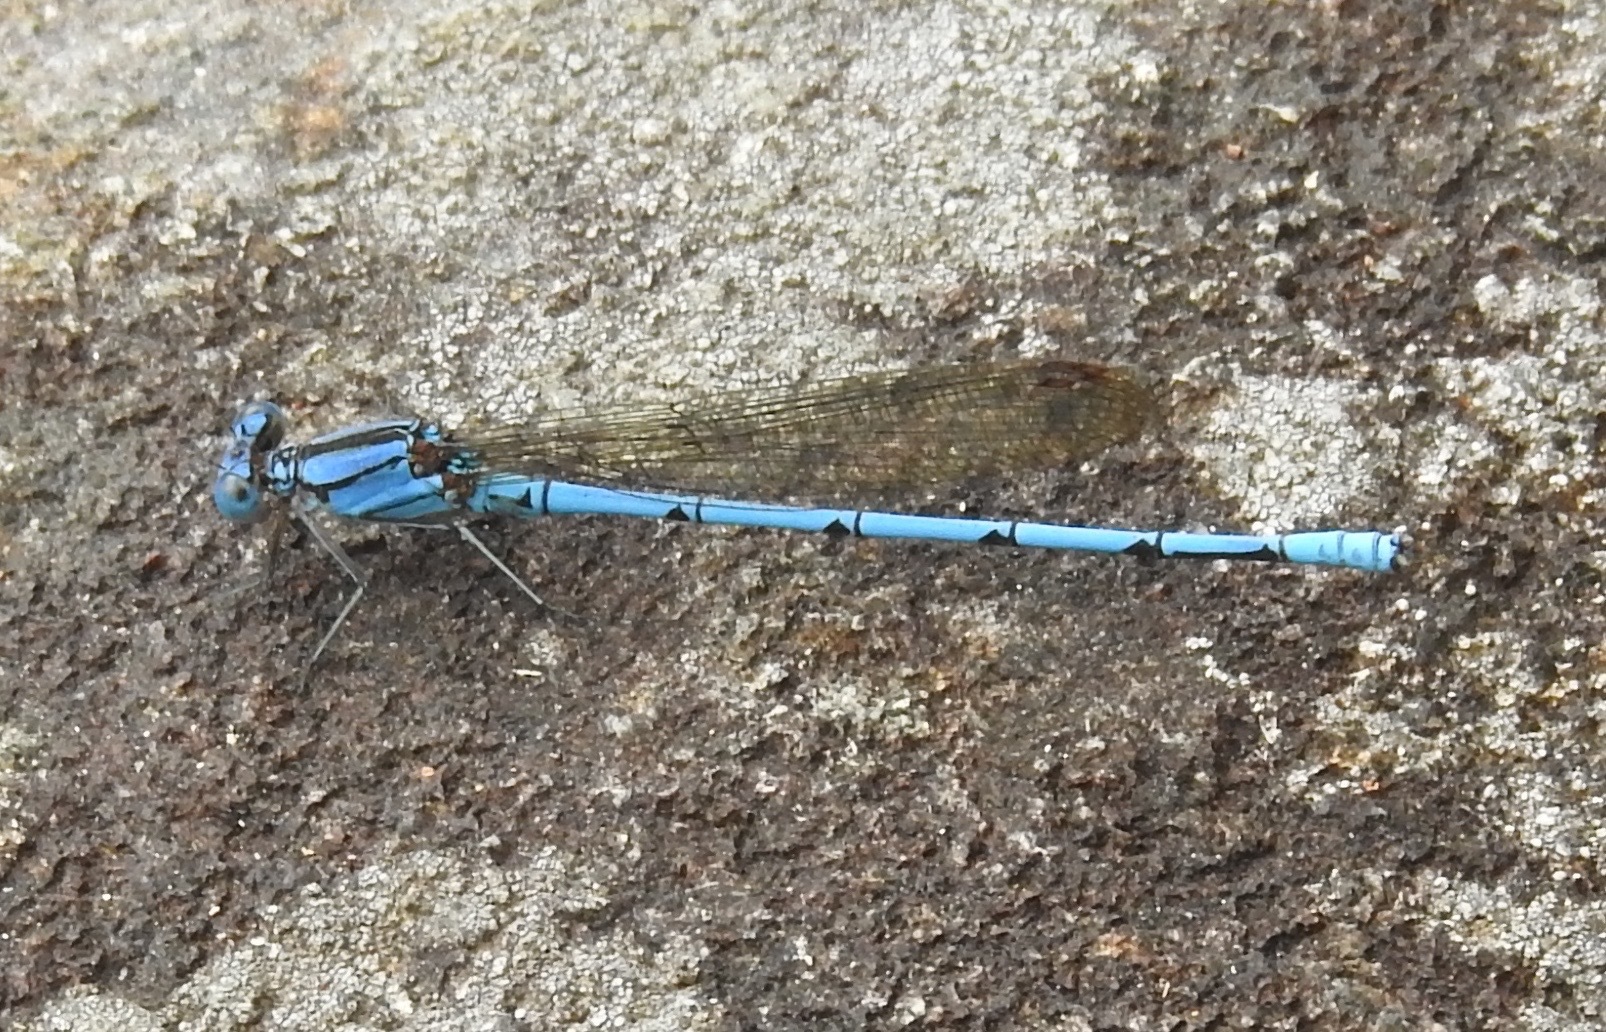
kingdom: Animalia
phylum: Arthropoda
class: Insecta
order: Odonata
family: Coenagrionidae
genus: Argia
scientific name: Argia anceps
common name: Cerulean dancer
